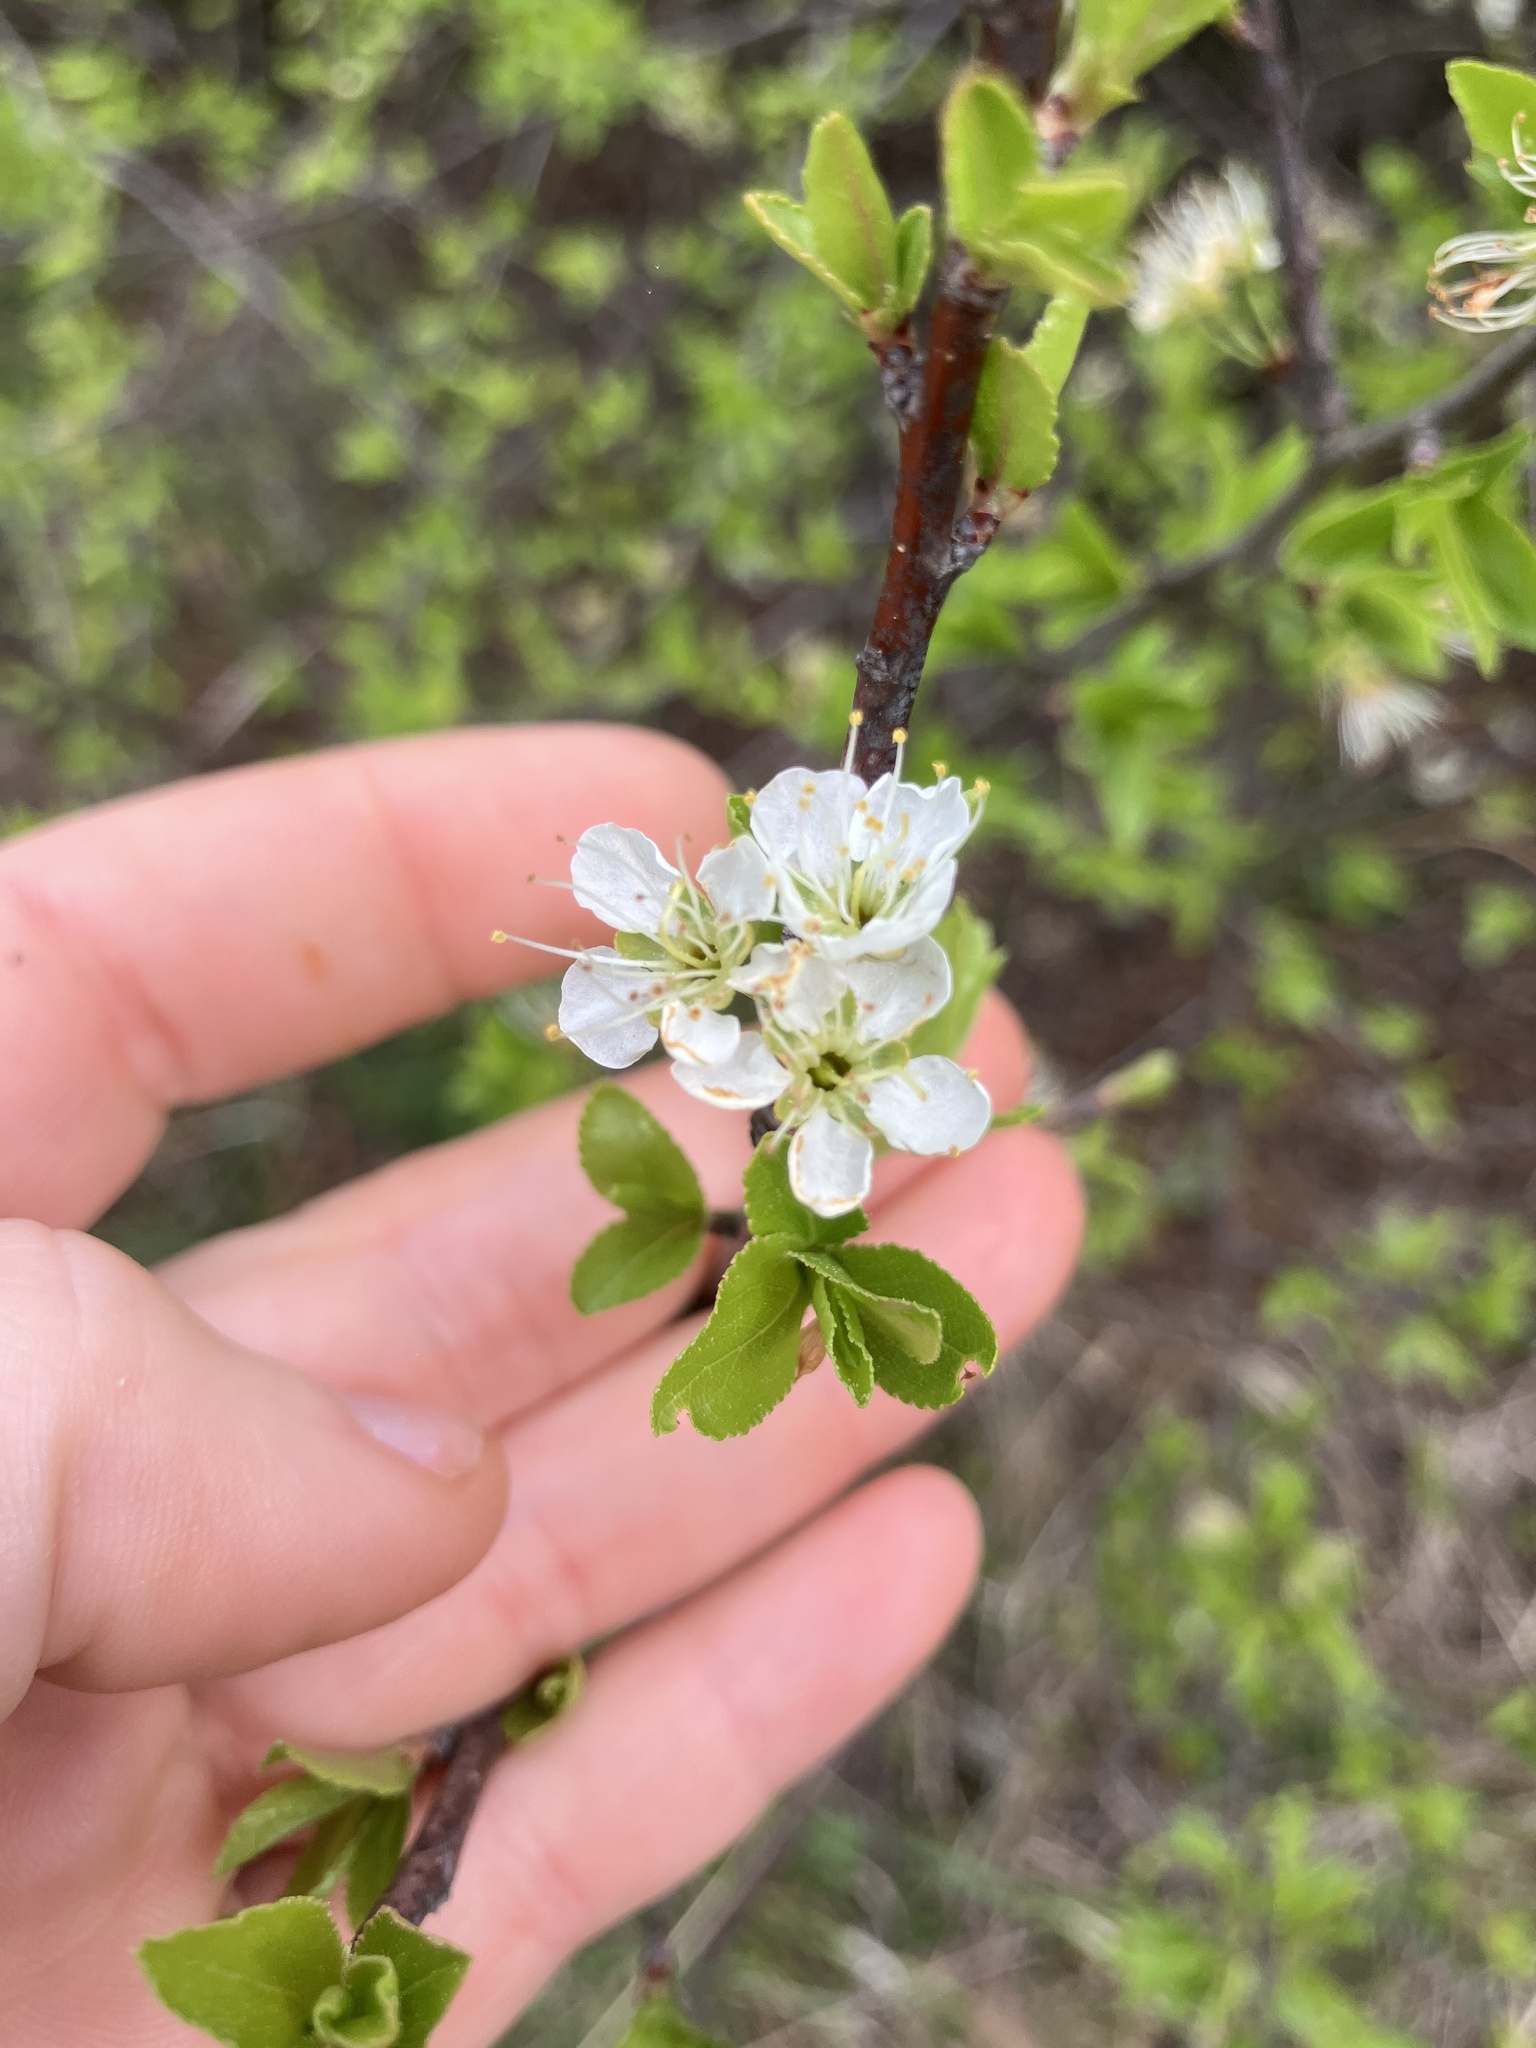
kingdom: Plantae
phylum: Tracheophyta
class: Magnoliopsida
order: Rosales
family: Rosaceae
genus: Prunus
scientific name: Prunus angustifolia
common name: Cherokee plum
